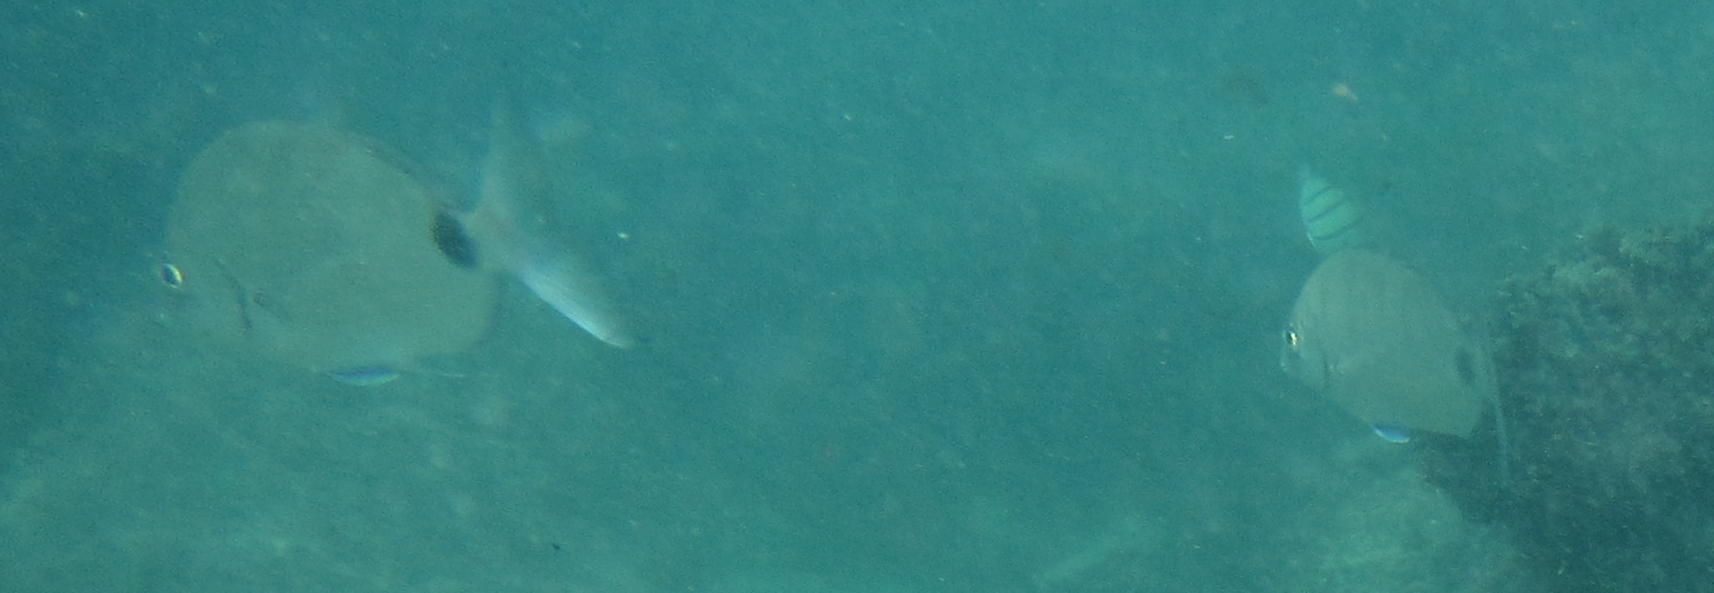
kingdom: Animalia
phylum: Chordata
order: Perciformes
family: Sparidae
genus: Diplodus
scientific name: Diplodus capensis
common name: Blacktail
